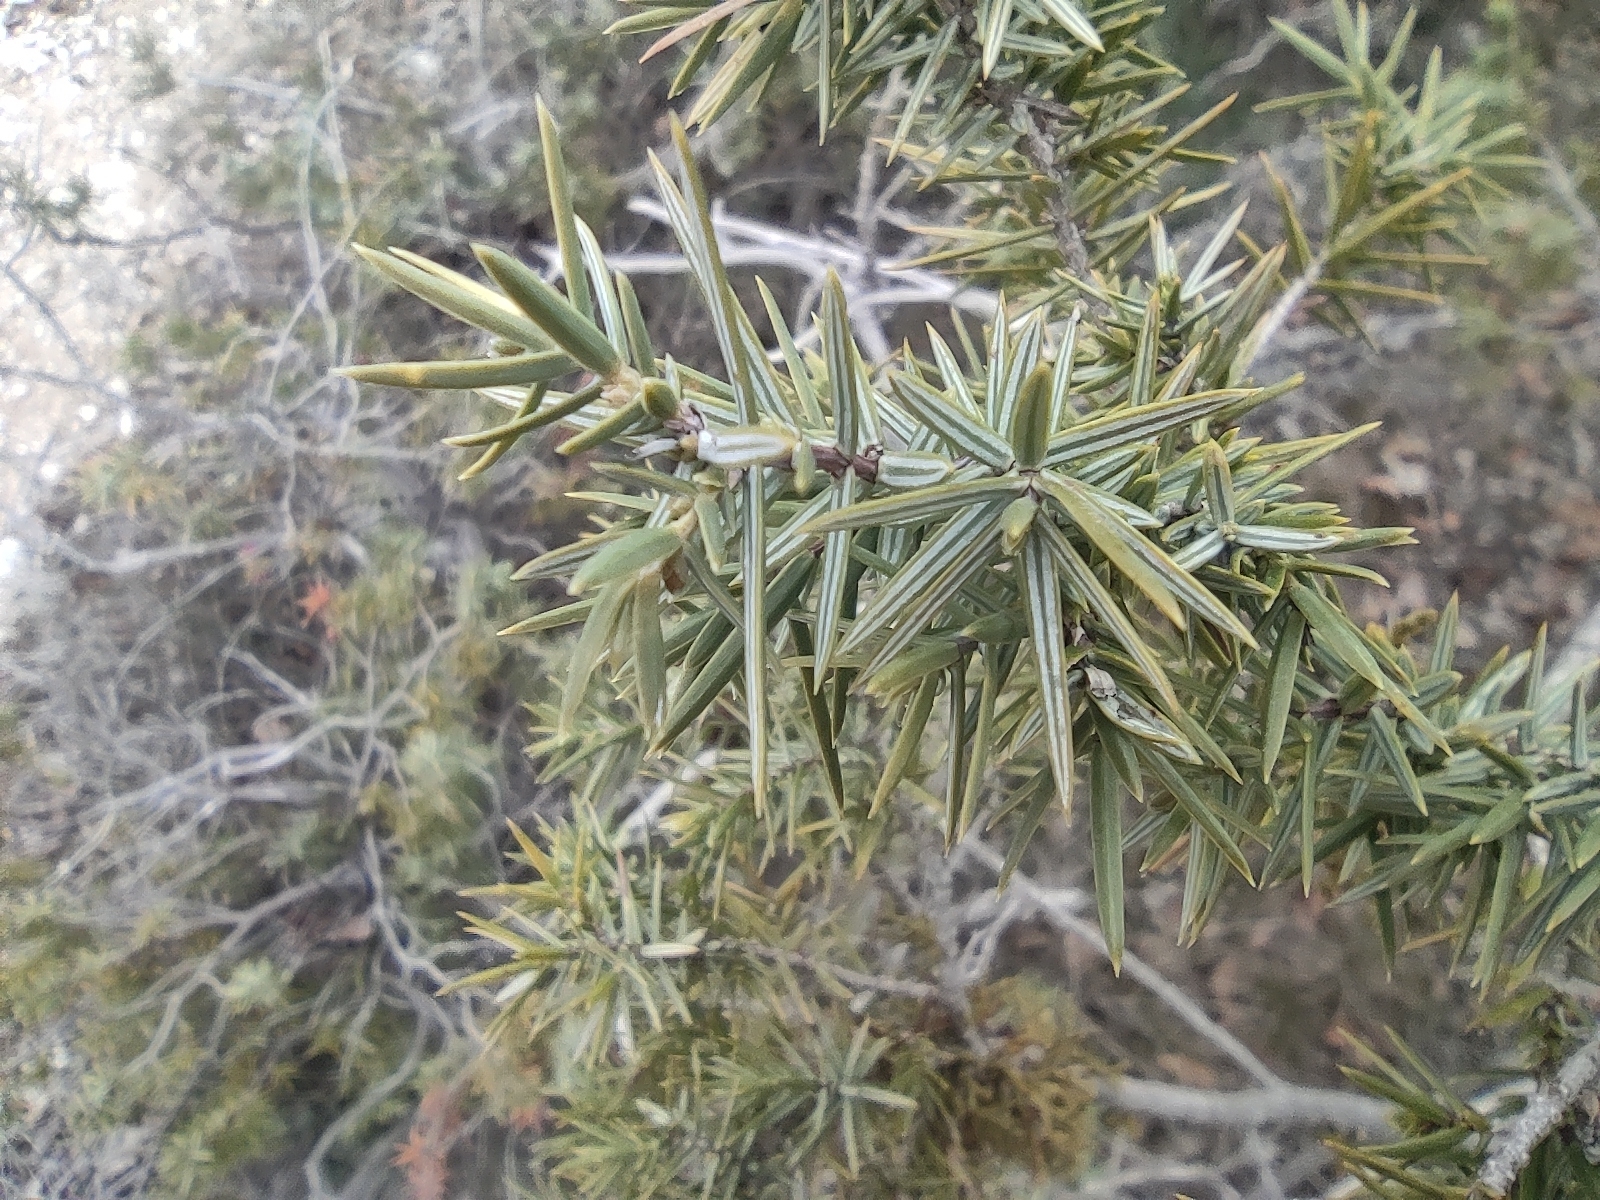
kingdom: Plantae
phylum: Tracheophyta
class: Pinopsida
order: Pinales
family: Cupressaceae
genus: Juniperus
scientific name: Juniperus oxycedrus
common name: Prickly juniper
